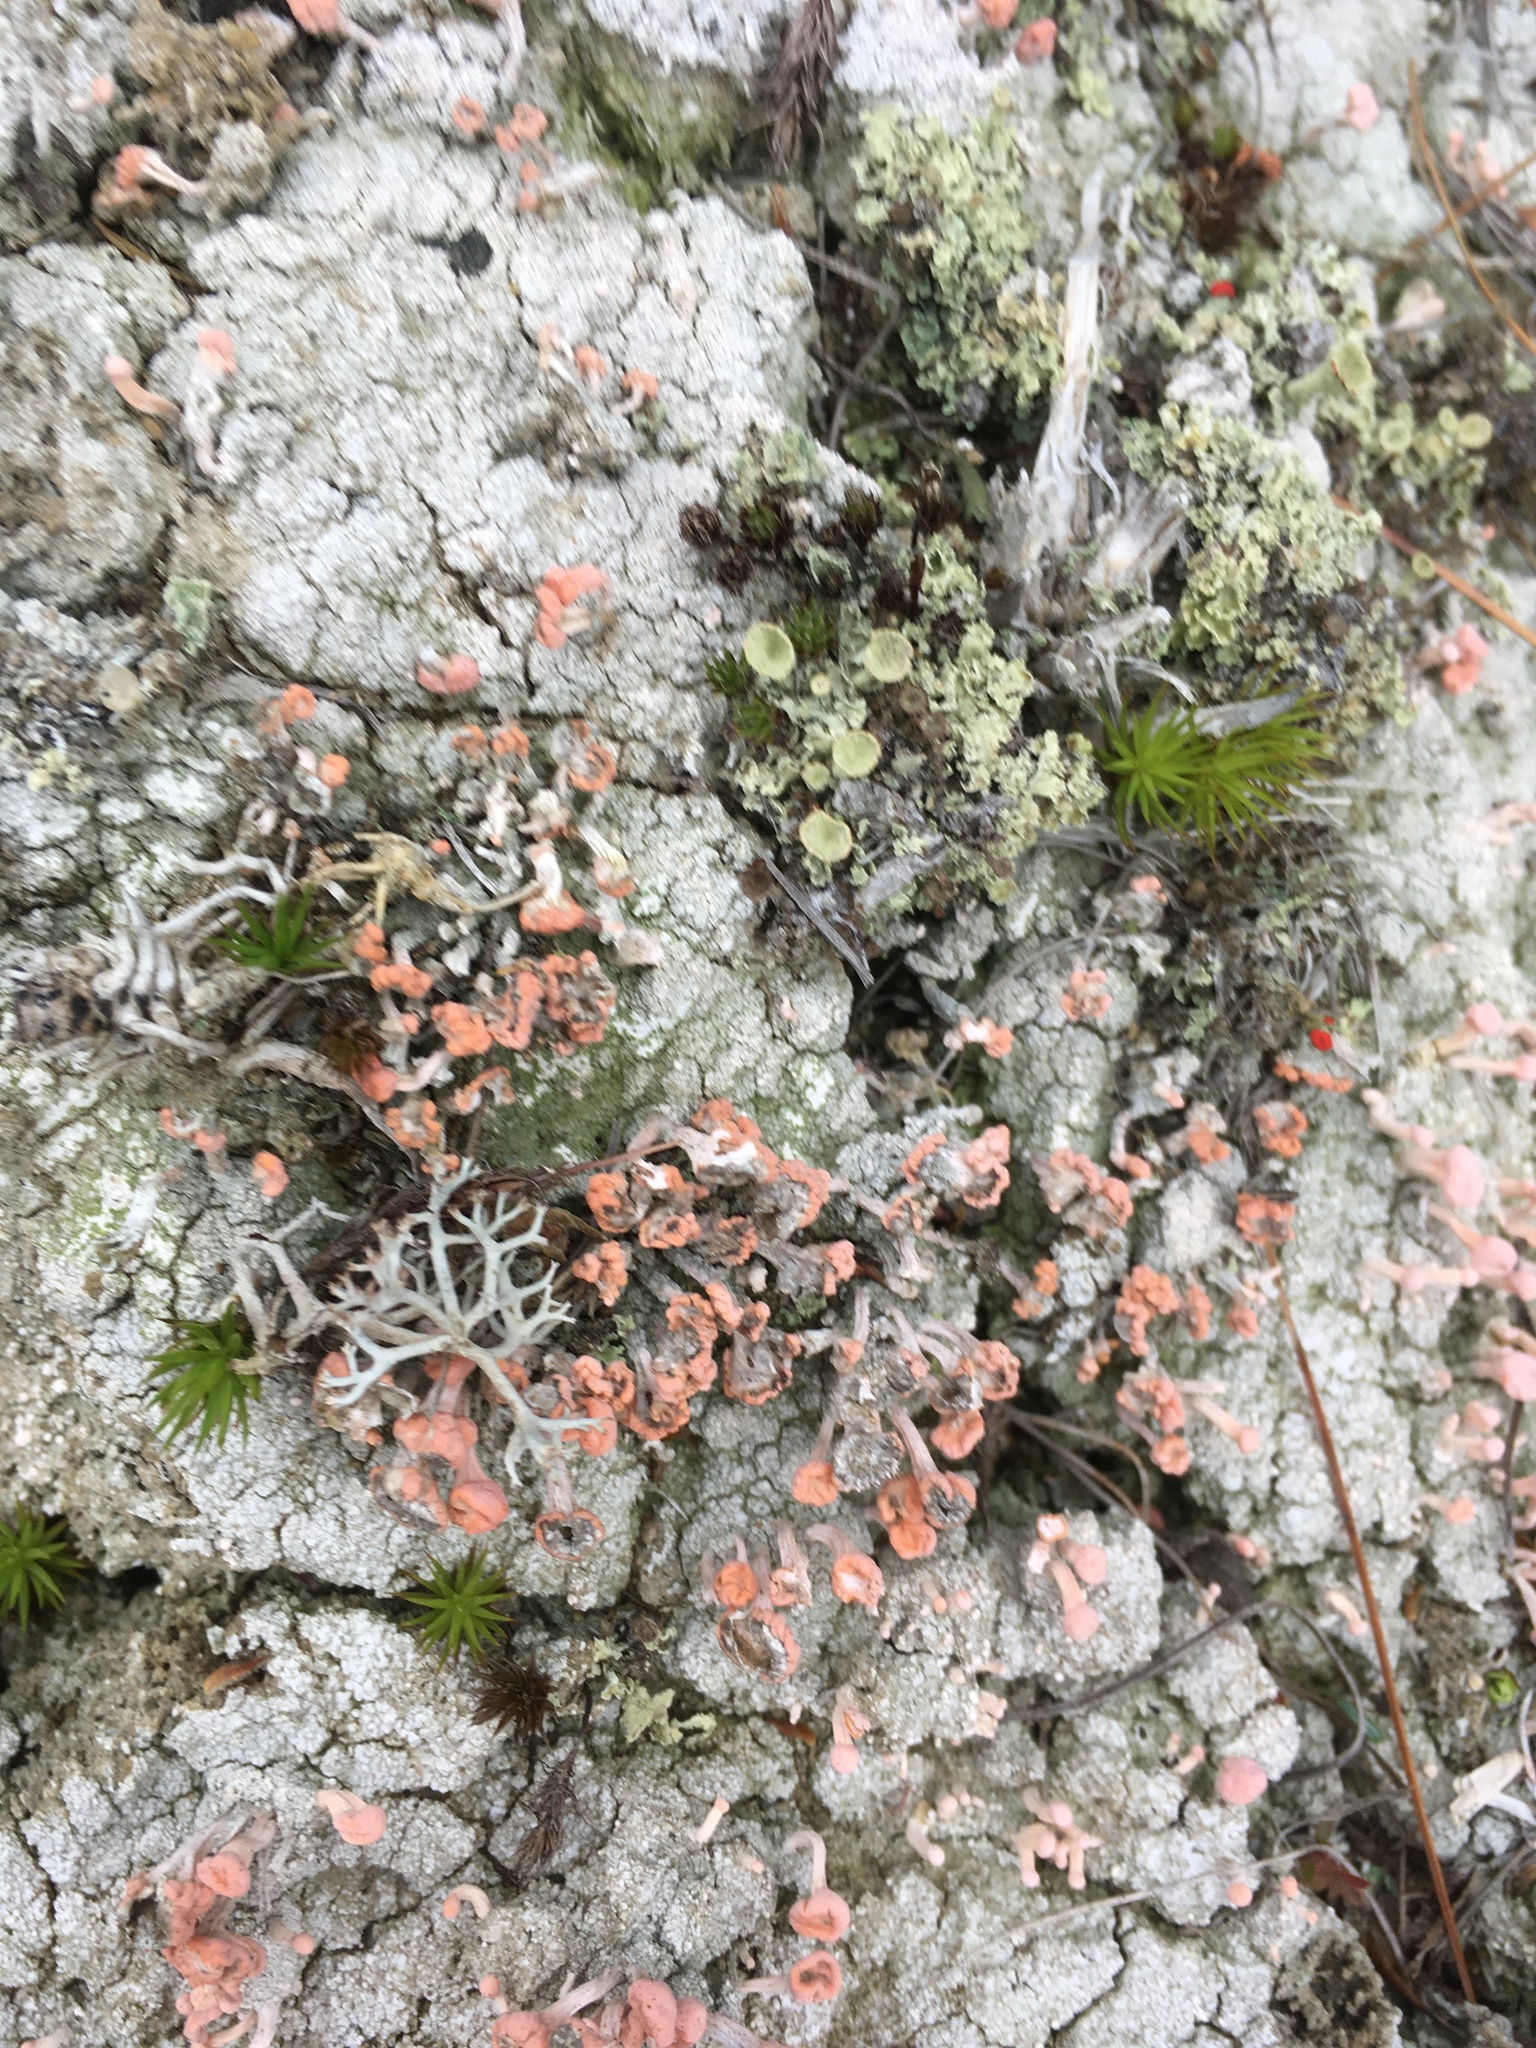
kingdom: Fungi
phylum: Ascomycota
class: Lecanoromycetes
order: Pertusariales
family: Icmadophilaceae
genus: Dibaeis
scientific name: Dibaeis baeomyces
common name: Pink earth lichen
